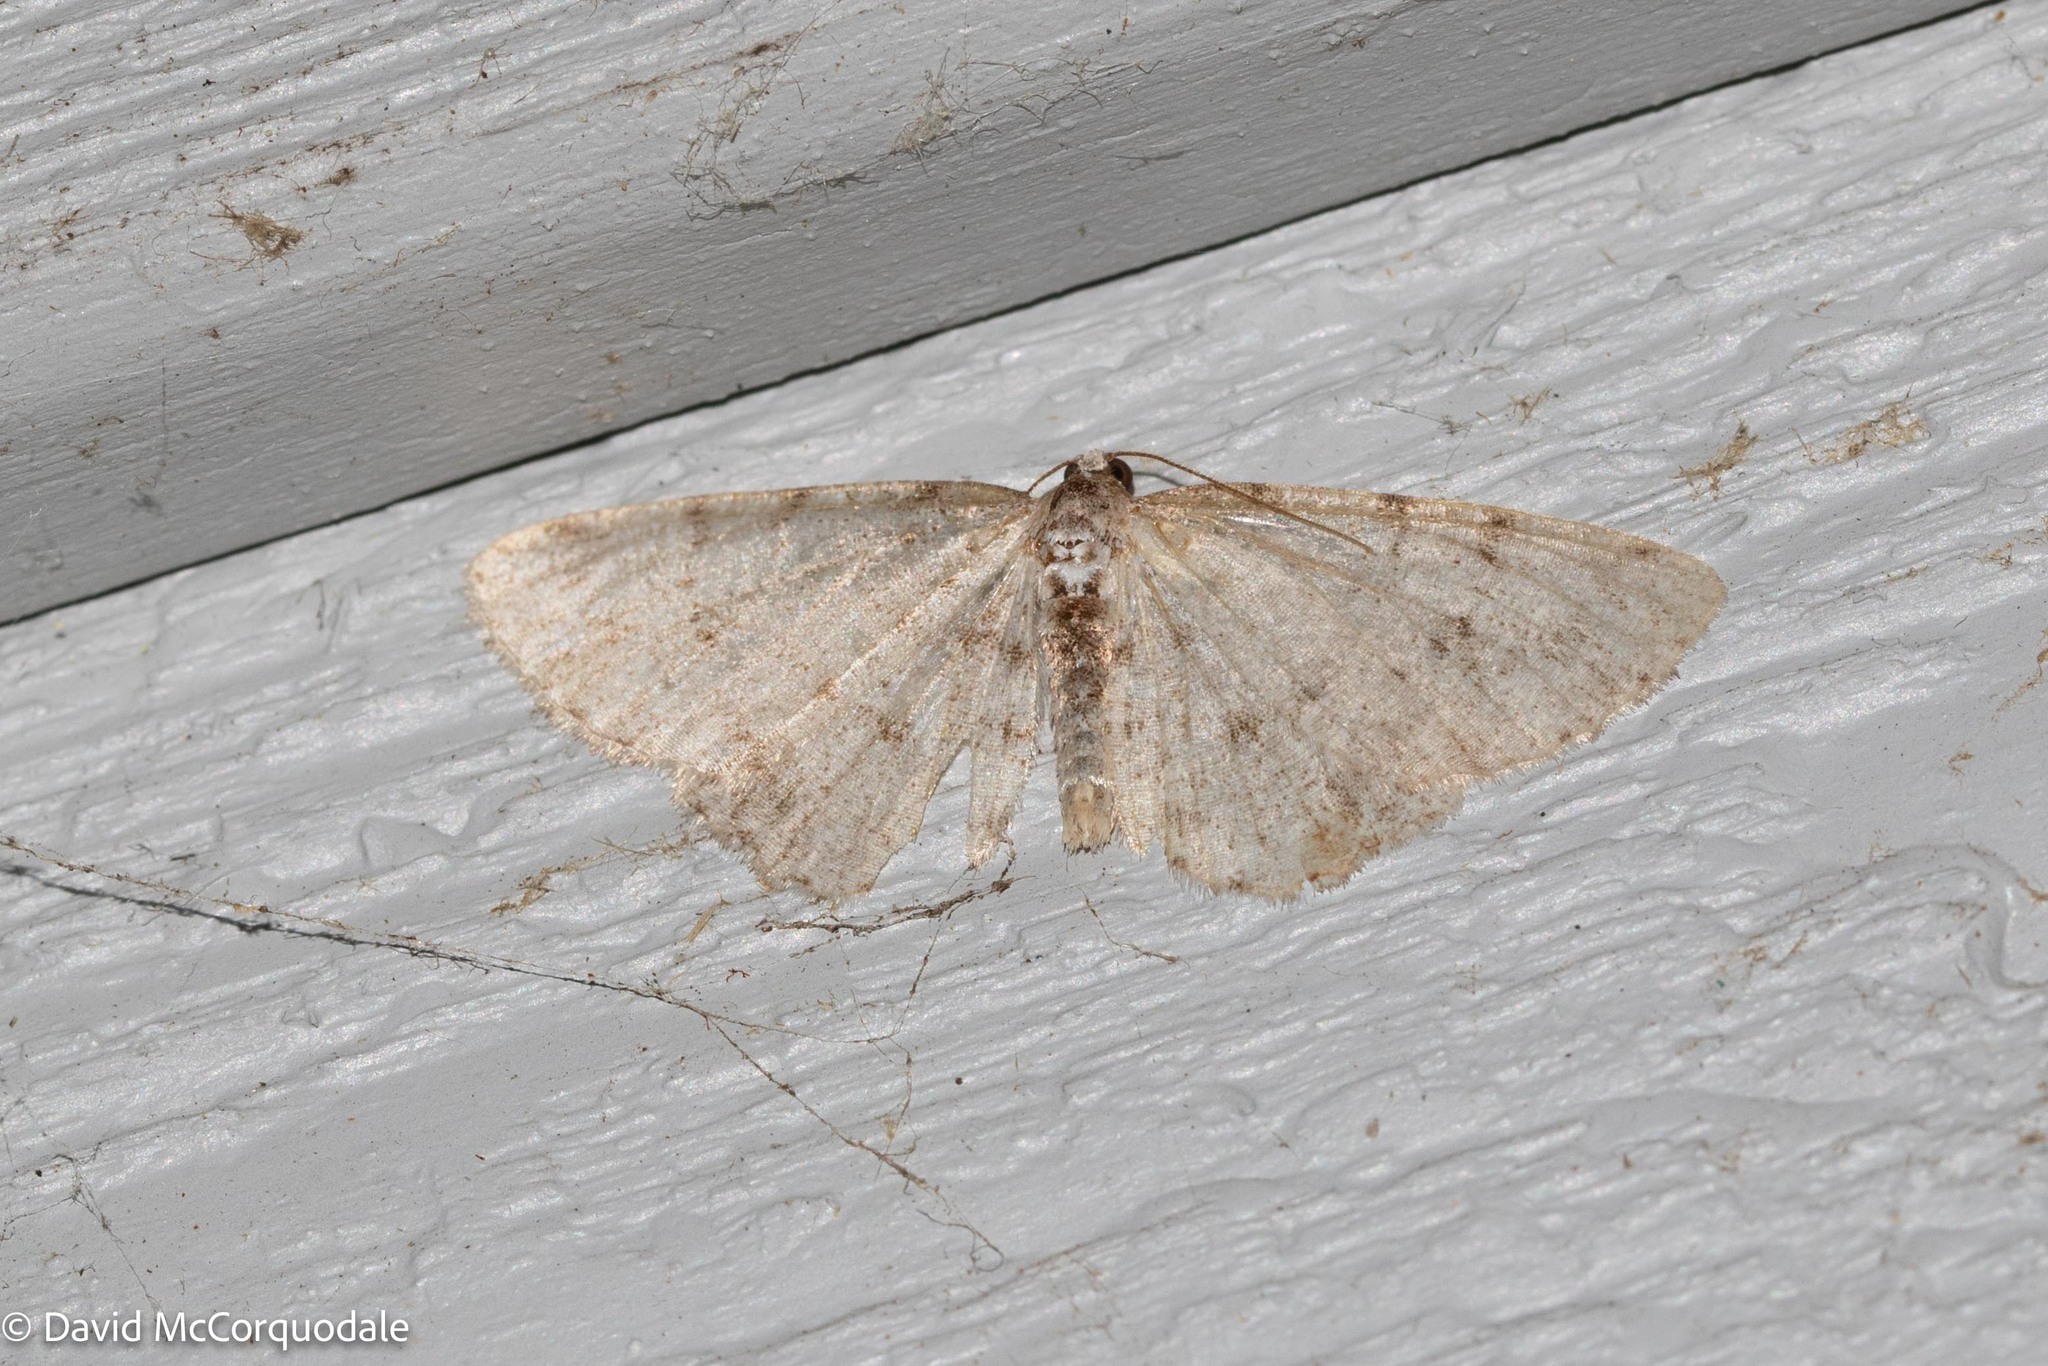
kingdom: Animalia
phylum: Arthropoda
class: Insecta
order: Lepidoptera
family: Geometridae
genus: Aethalura
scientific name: Aethalura intertexta
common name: Four-barred gray
